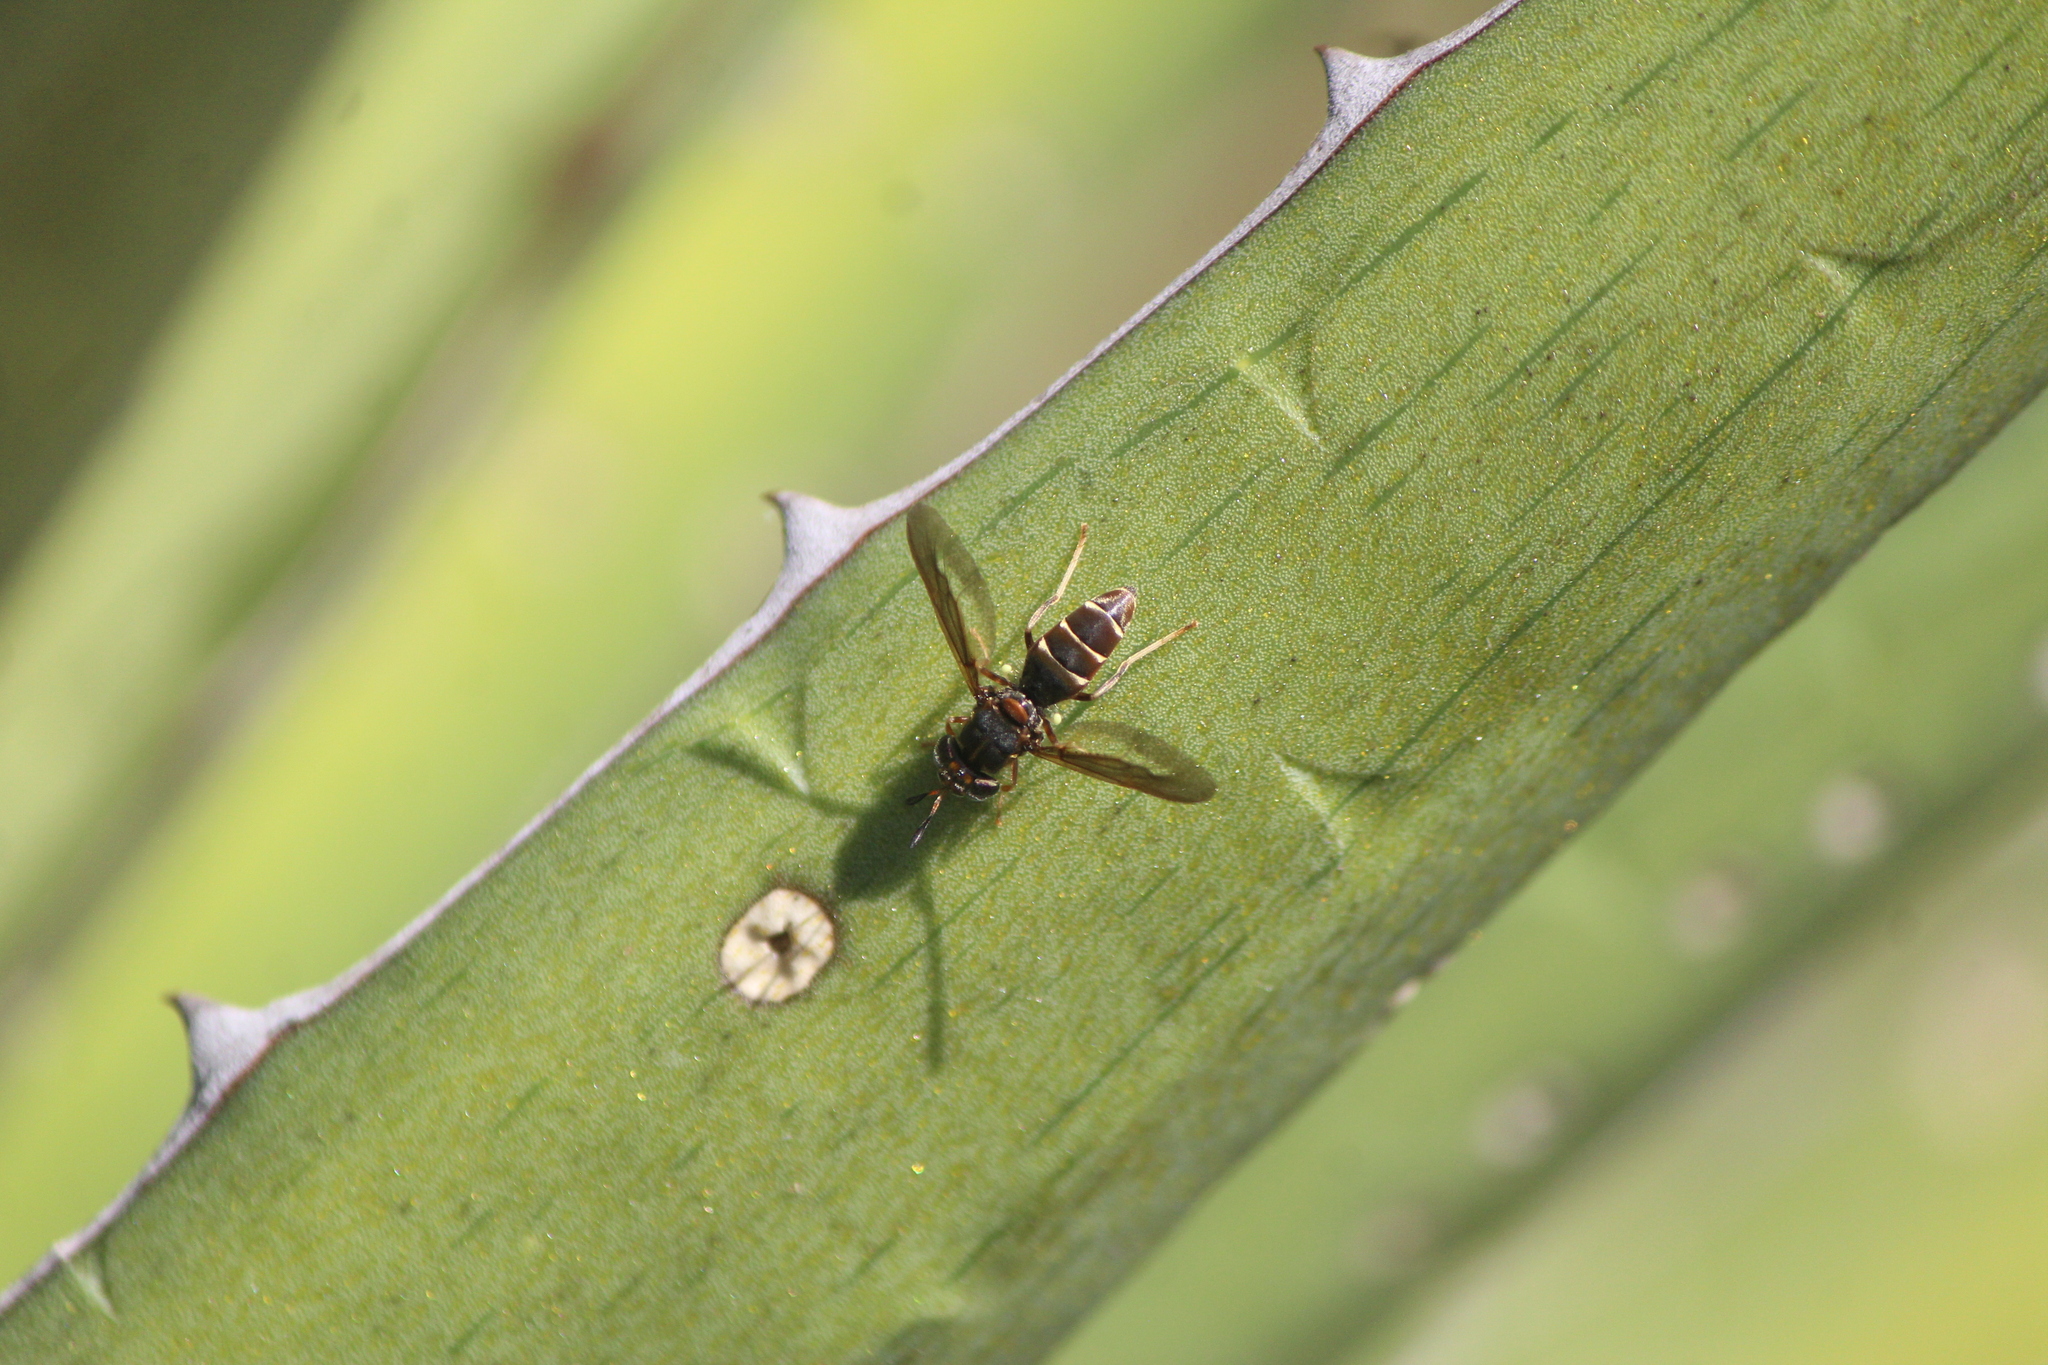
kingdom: Animalia
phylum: Arthropoda
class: Insecta
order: Diptera
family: Stratiomyidae
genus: Hermetia
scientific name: Hermetia comstocki
